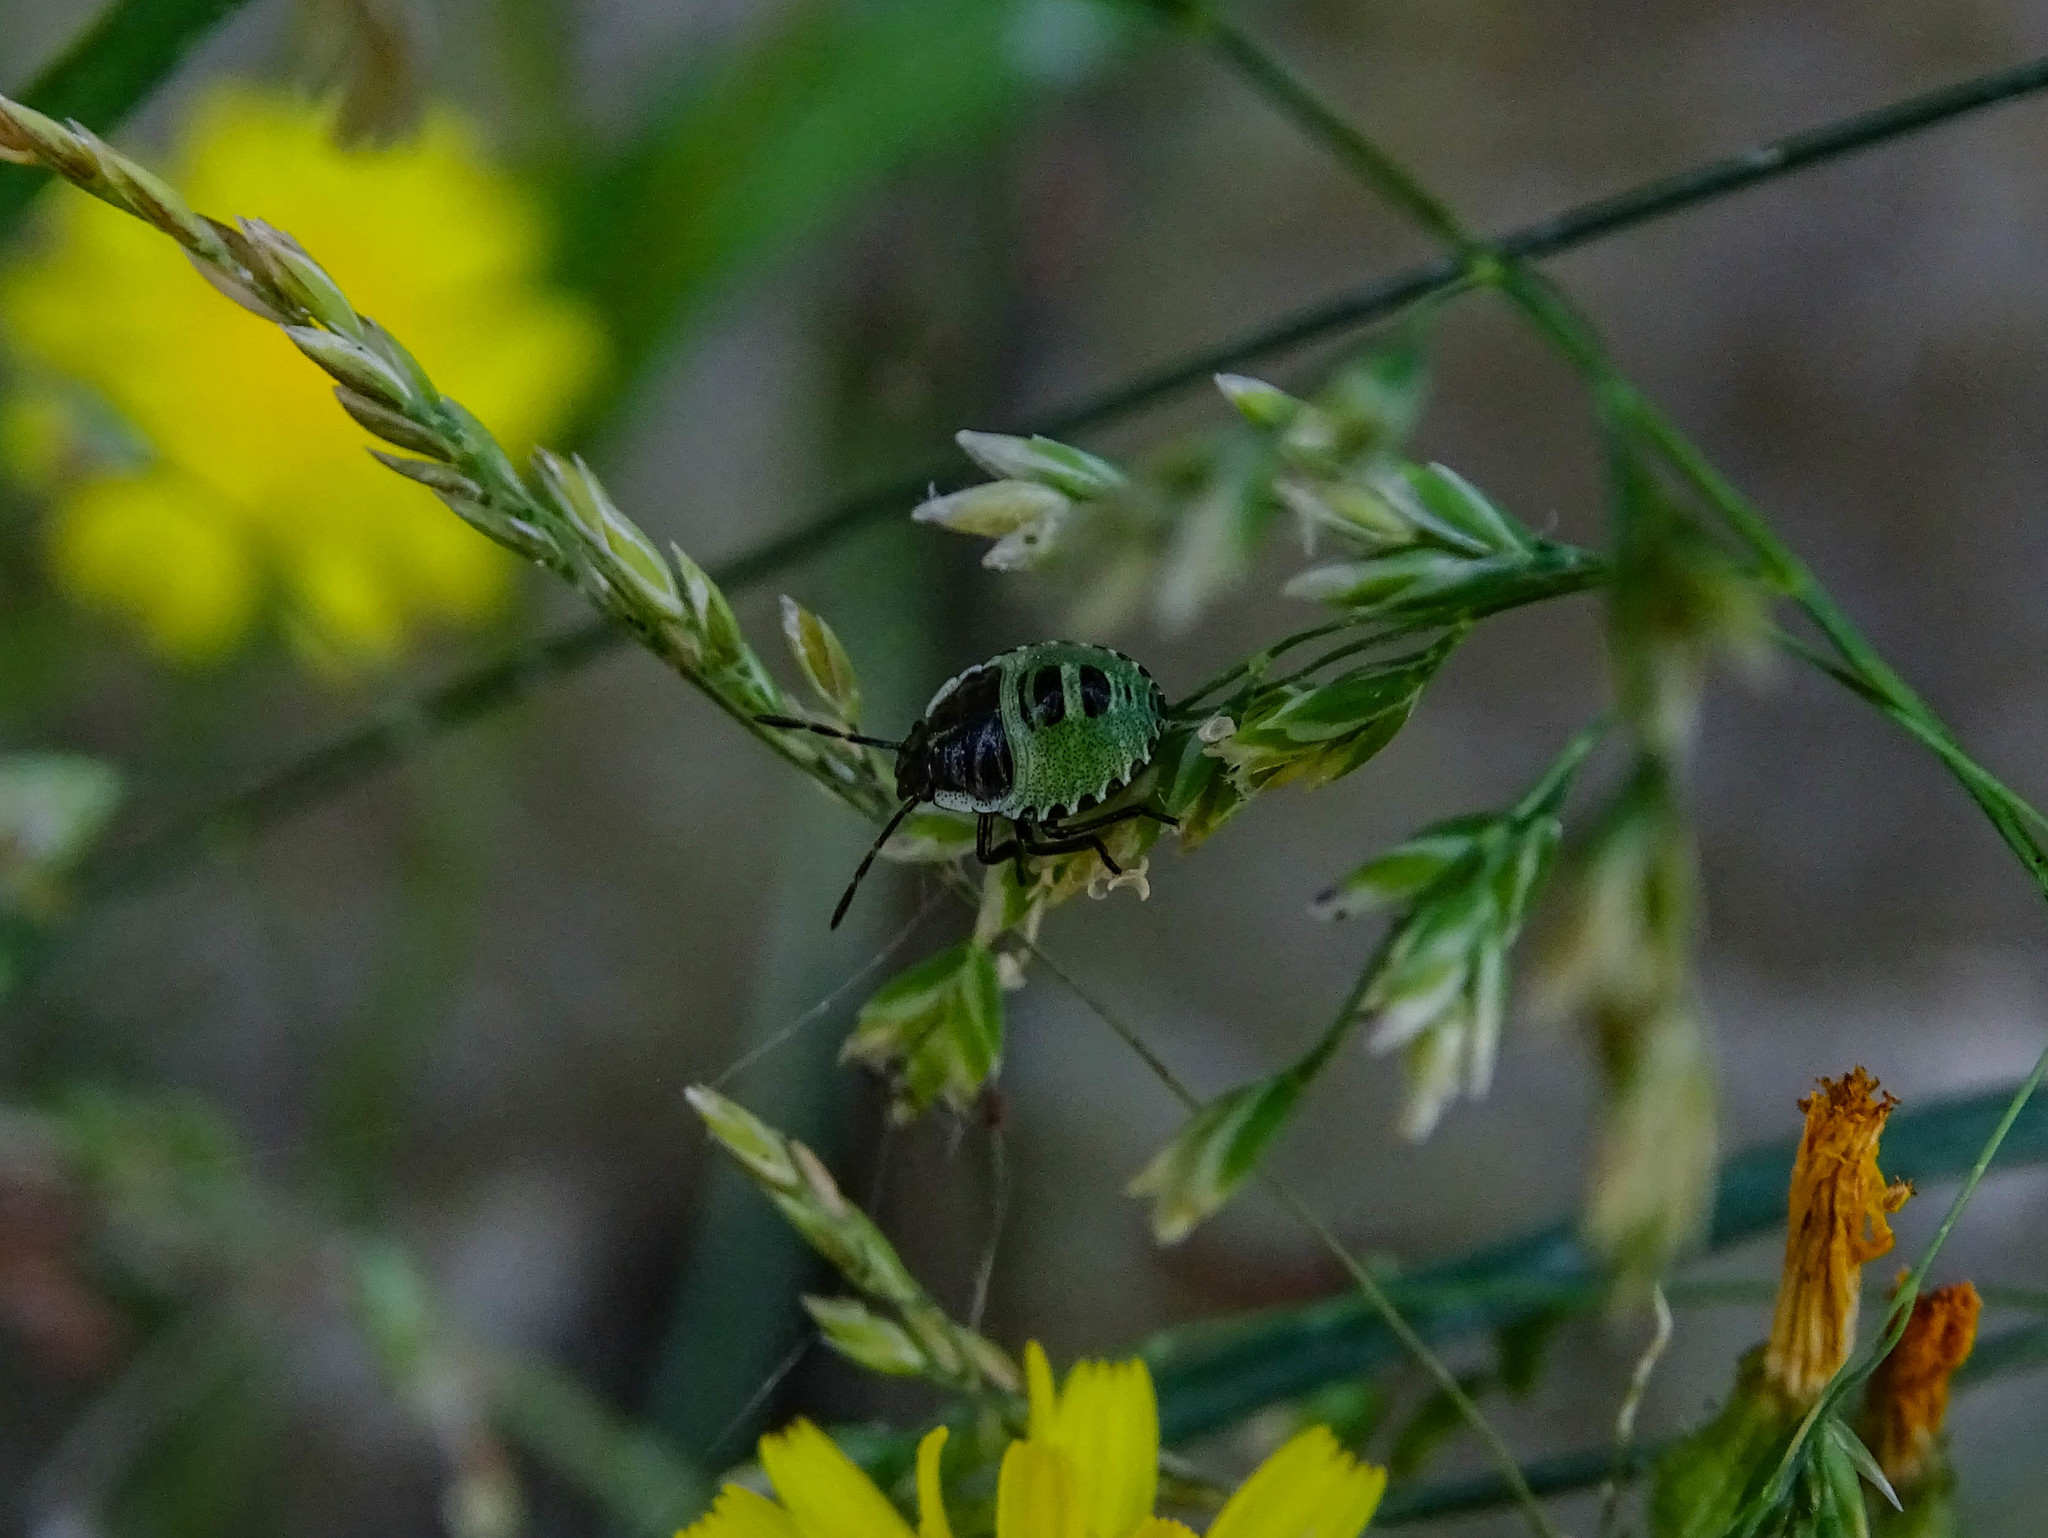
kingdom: Animalia
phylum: Arthropoda
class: Insecta
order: Hemiptera
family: Pentatomidae
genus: Palomena
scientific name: Palomena prasina
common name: Green shieldbug
